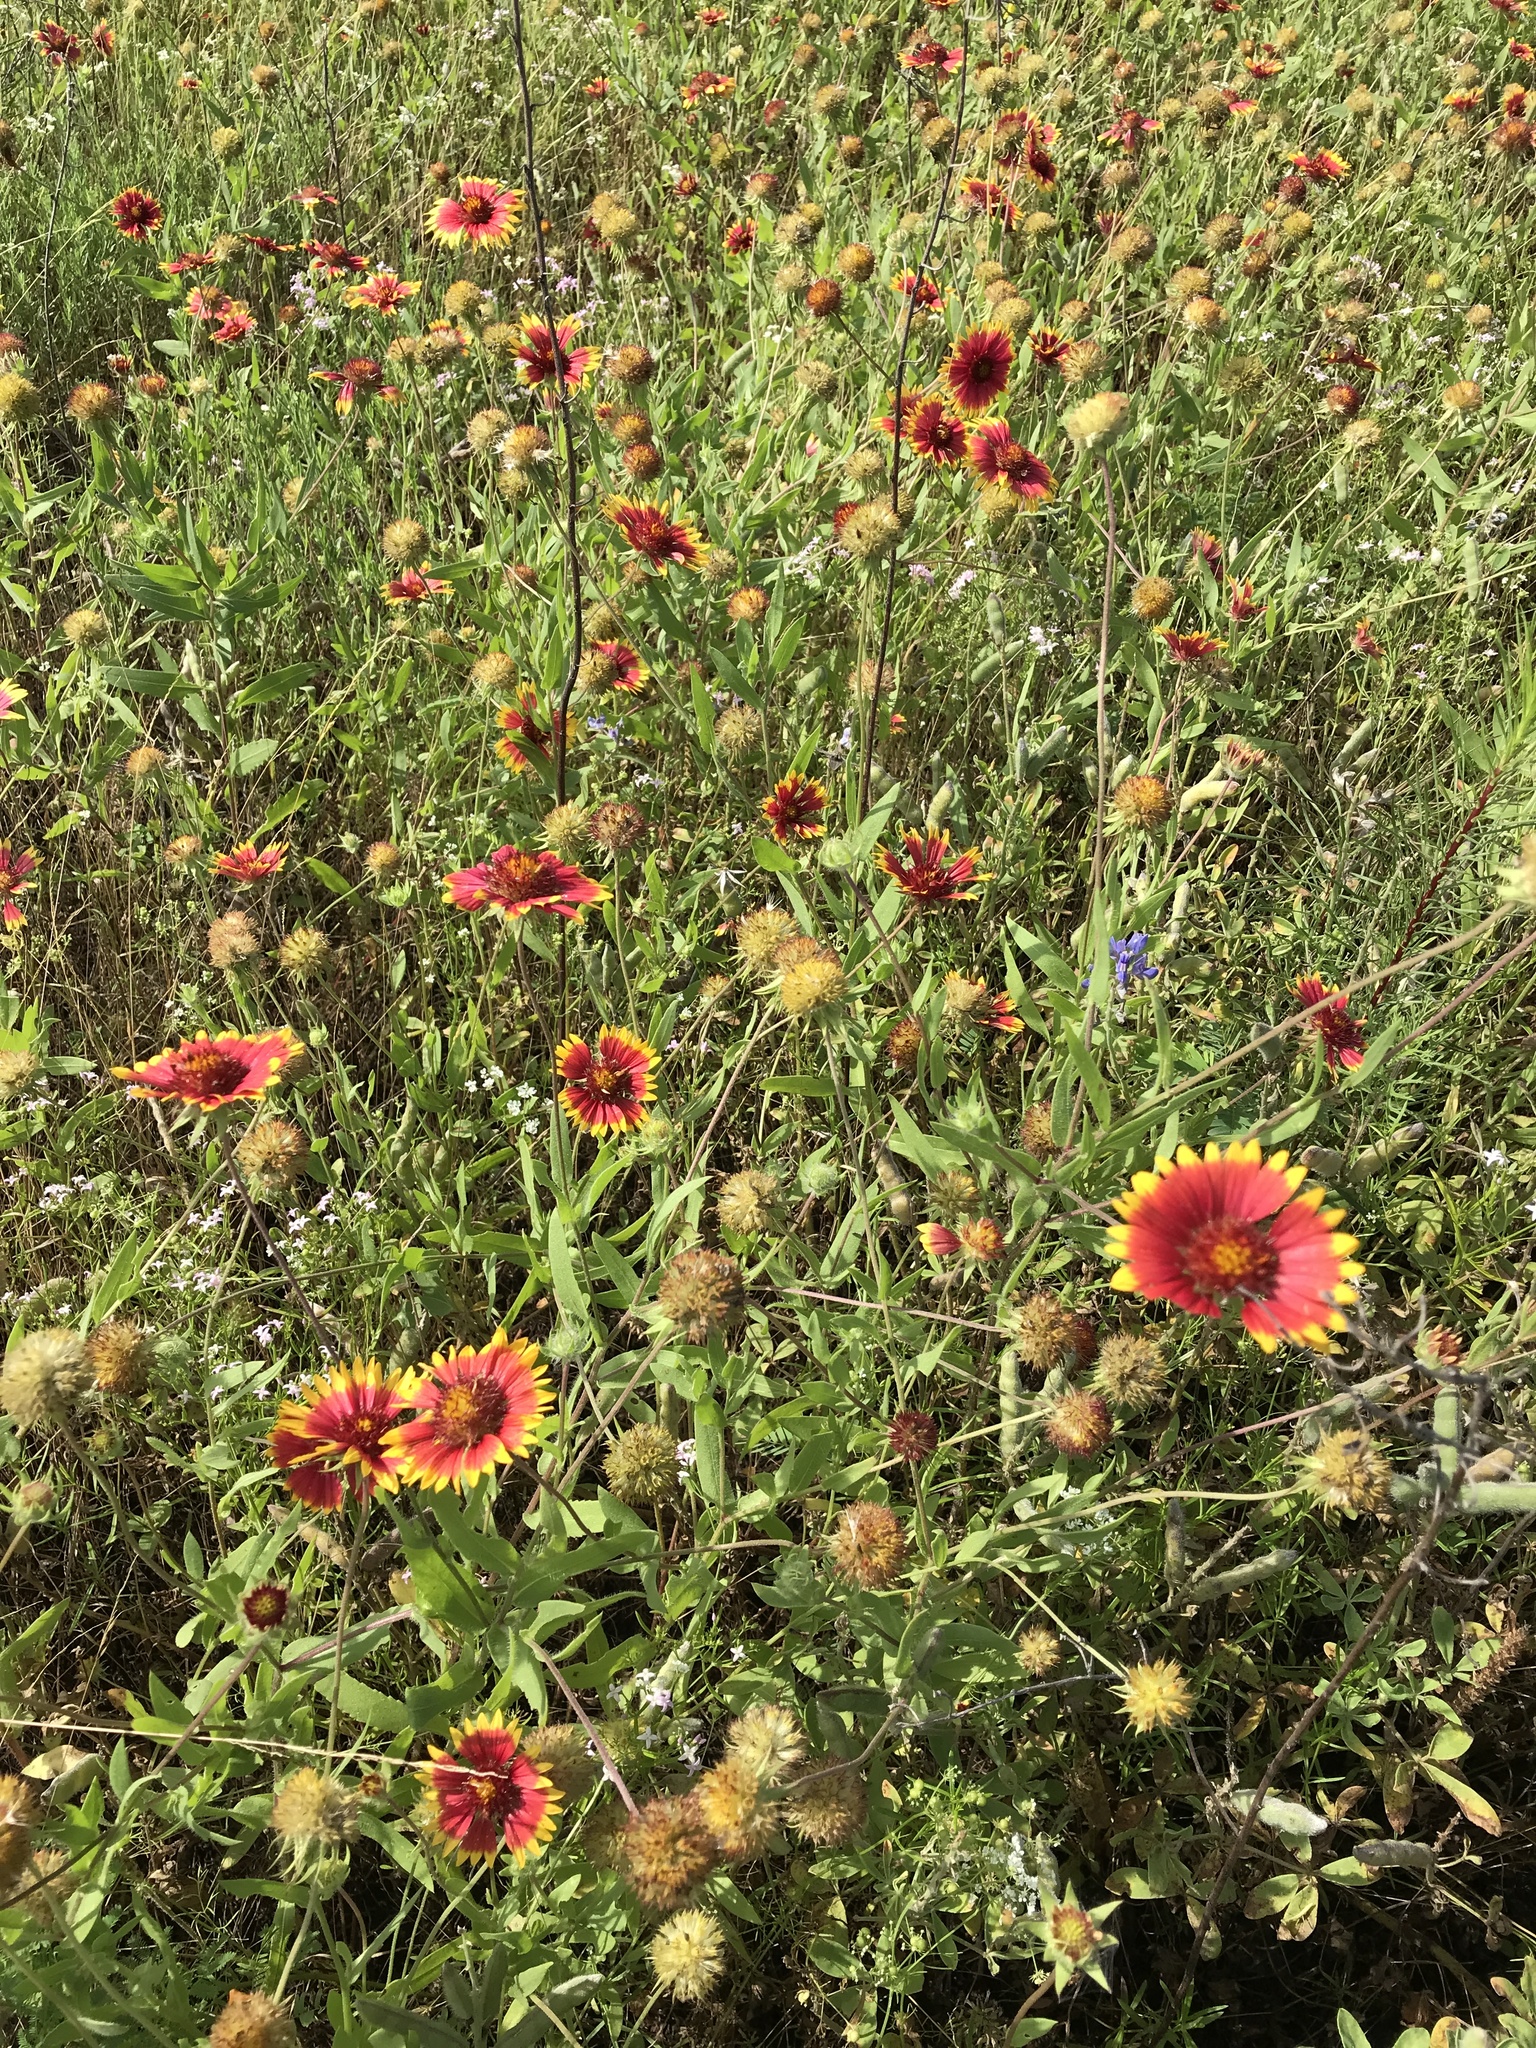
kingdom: Plantae
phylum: Tracheophyta
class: Magnoliopsida
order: Asterales
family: Asteraceae
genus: Gaillardia
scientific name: Gaillardia pulchella
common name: Firewheel
